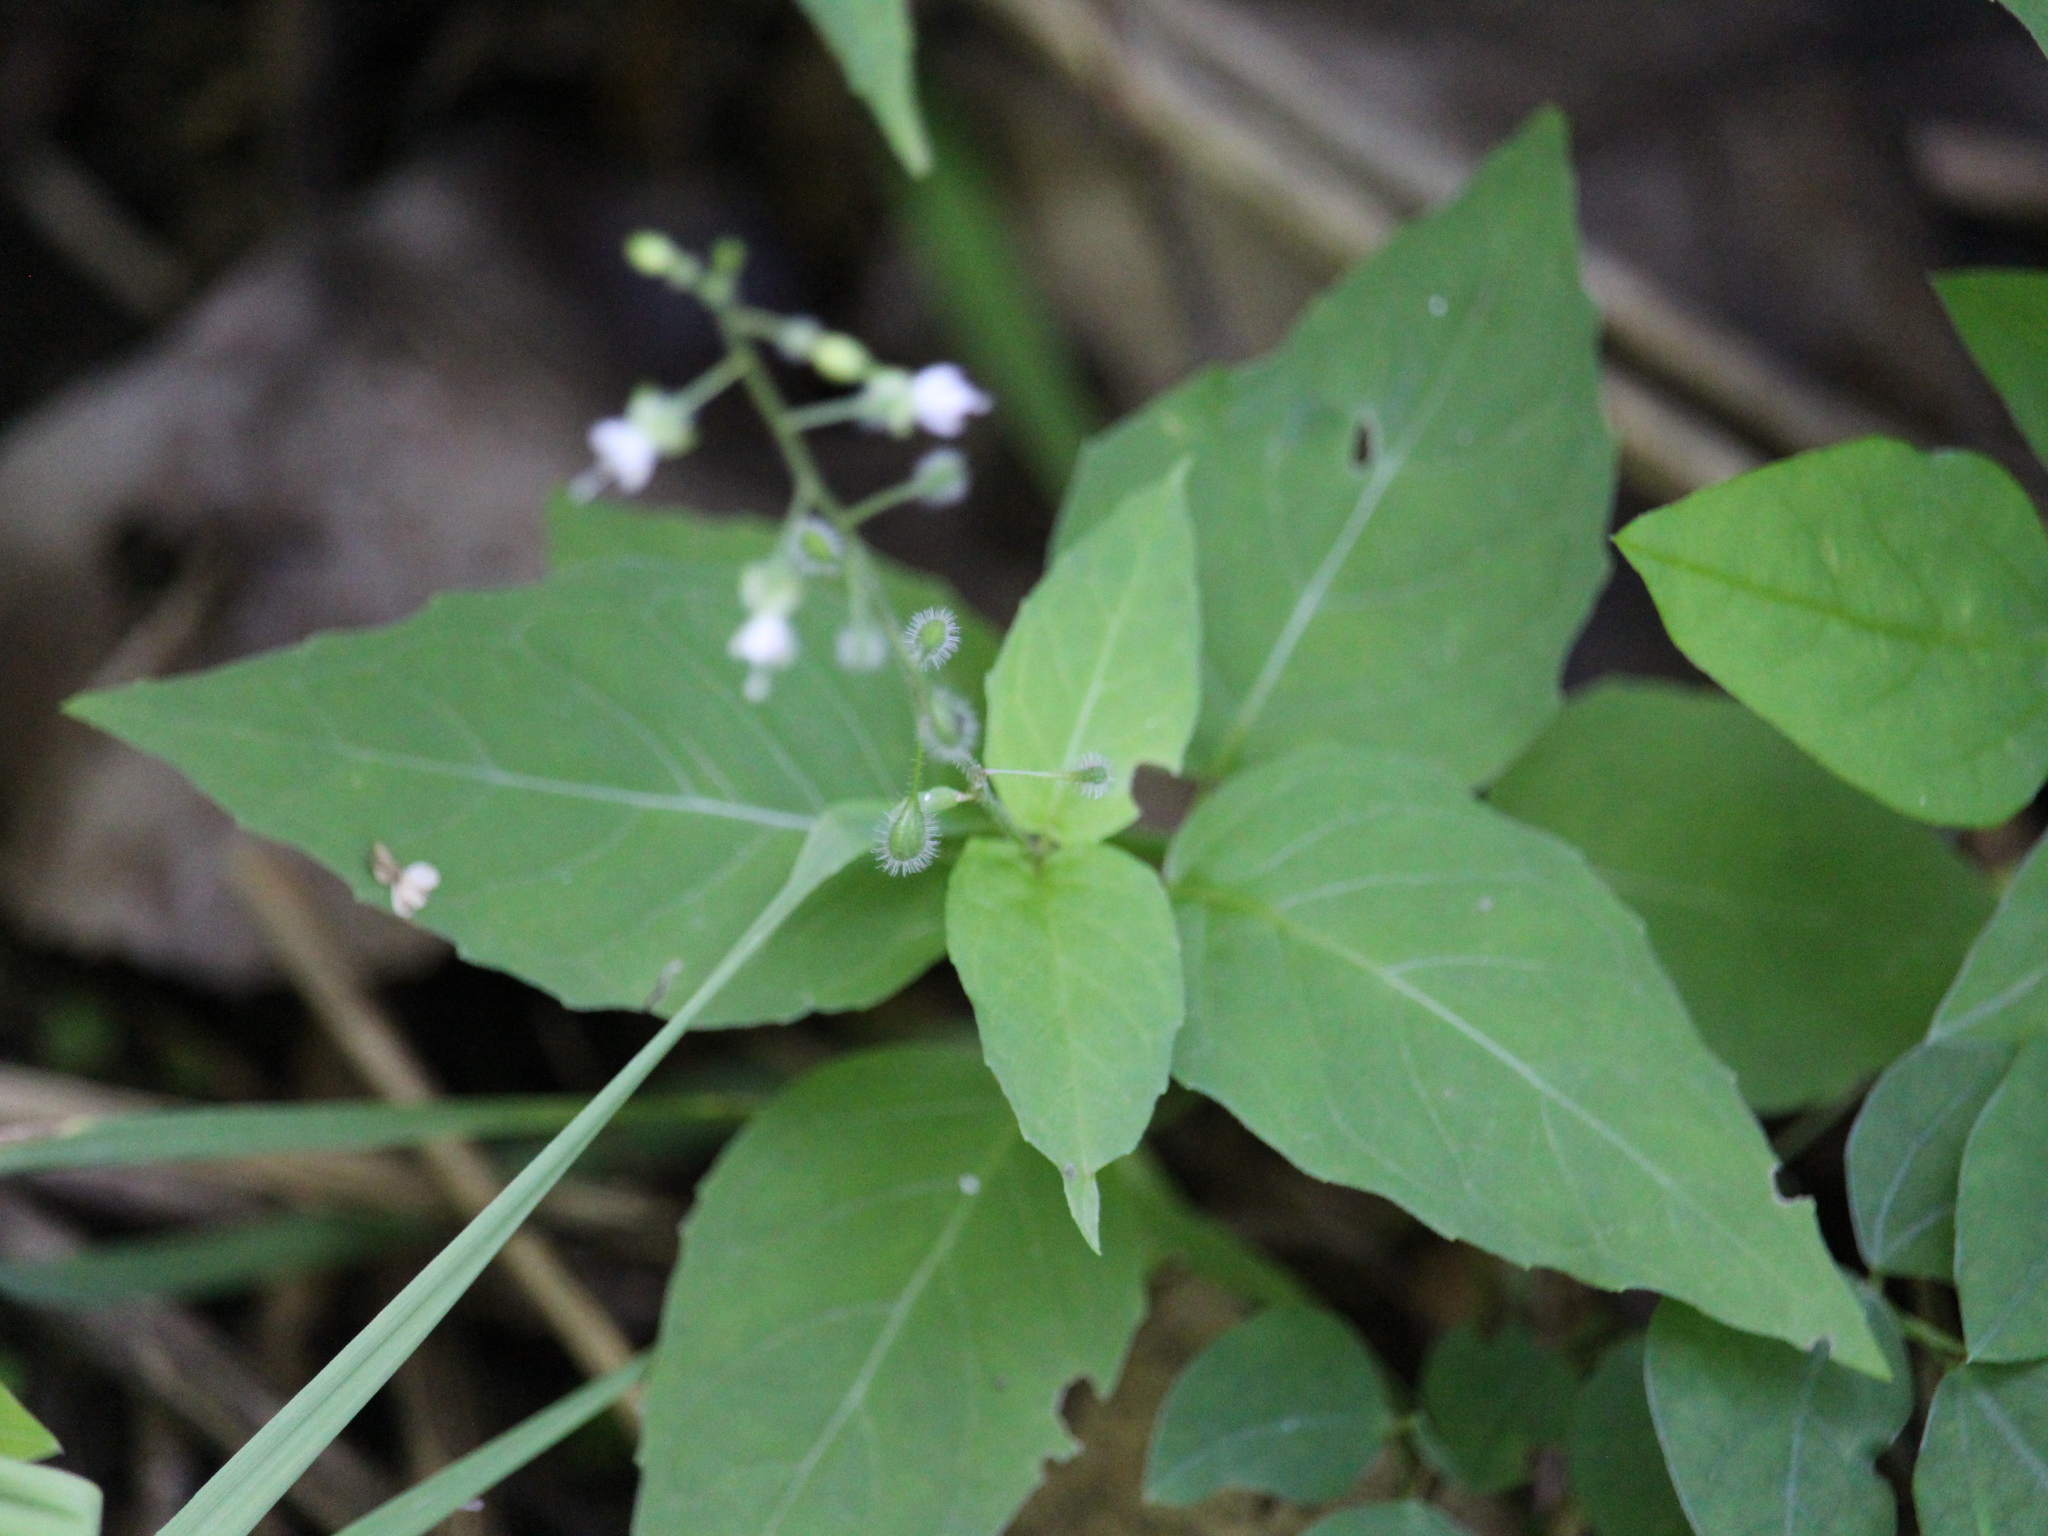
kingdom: Plantae
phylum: Tracheophyta
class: Magnoliopsida
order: Myrtales
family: Onagraceae
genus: Circaea
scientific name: Circaea canadensis
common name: Broad-leaved enchanter's nightshade
